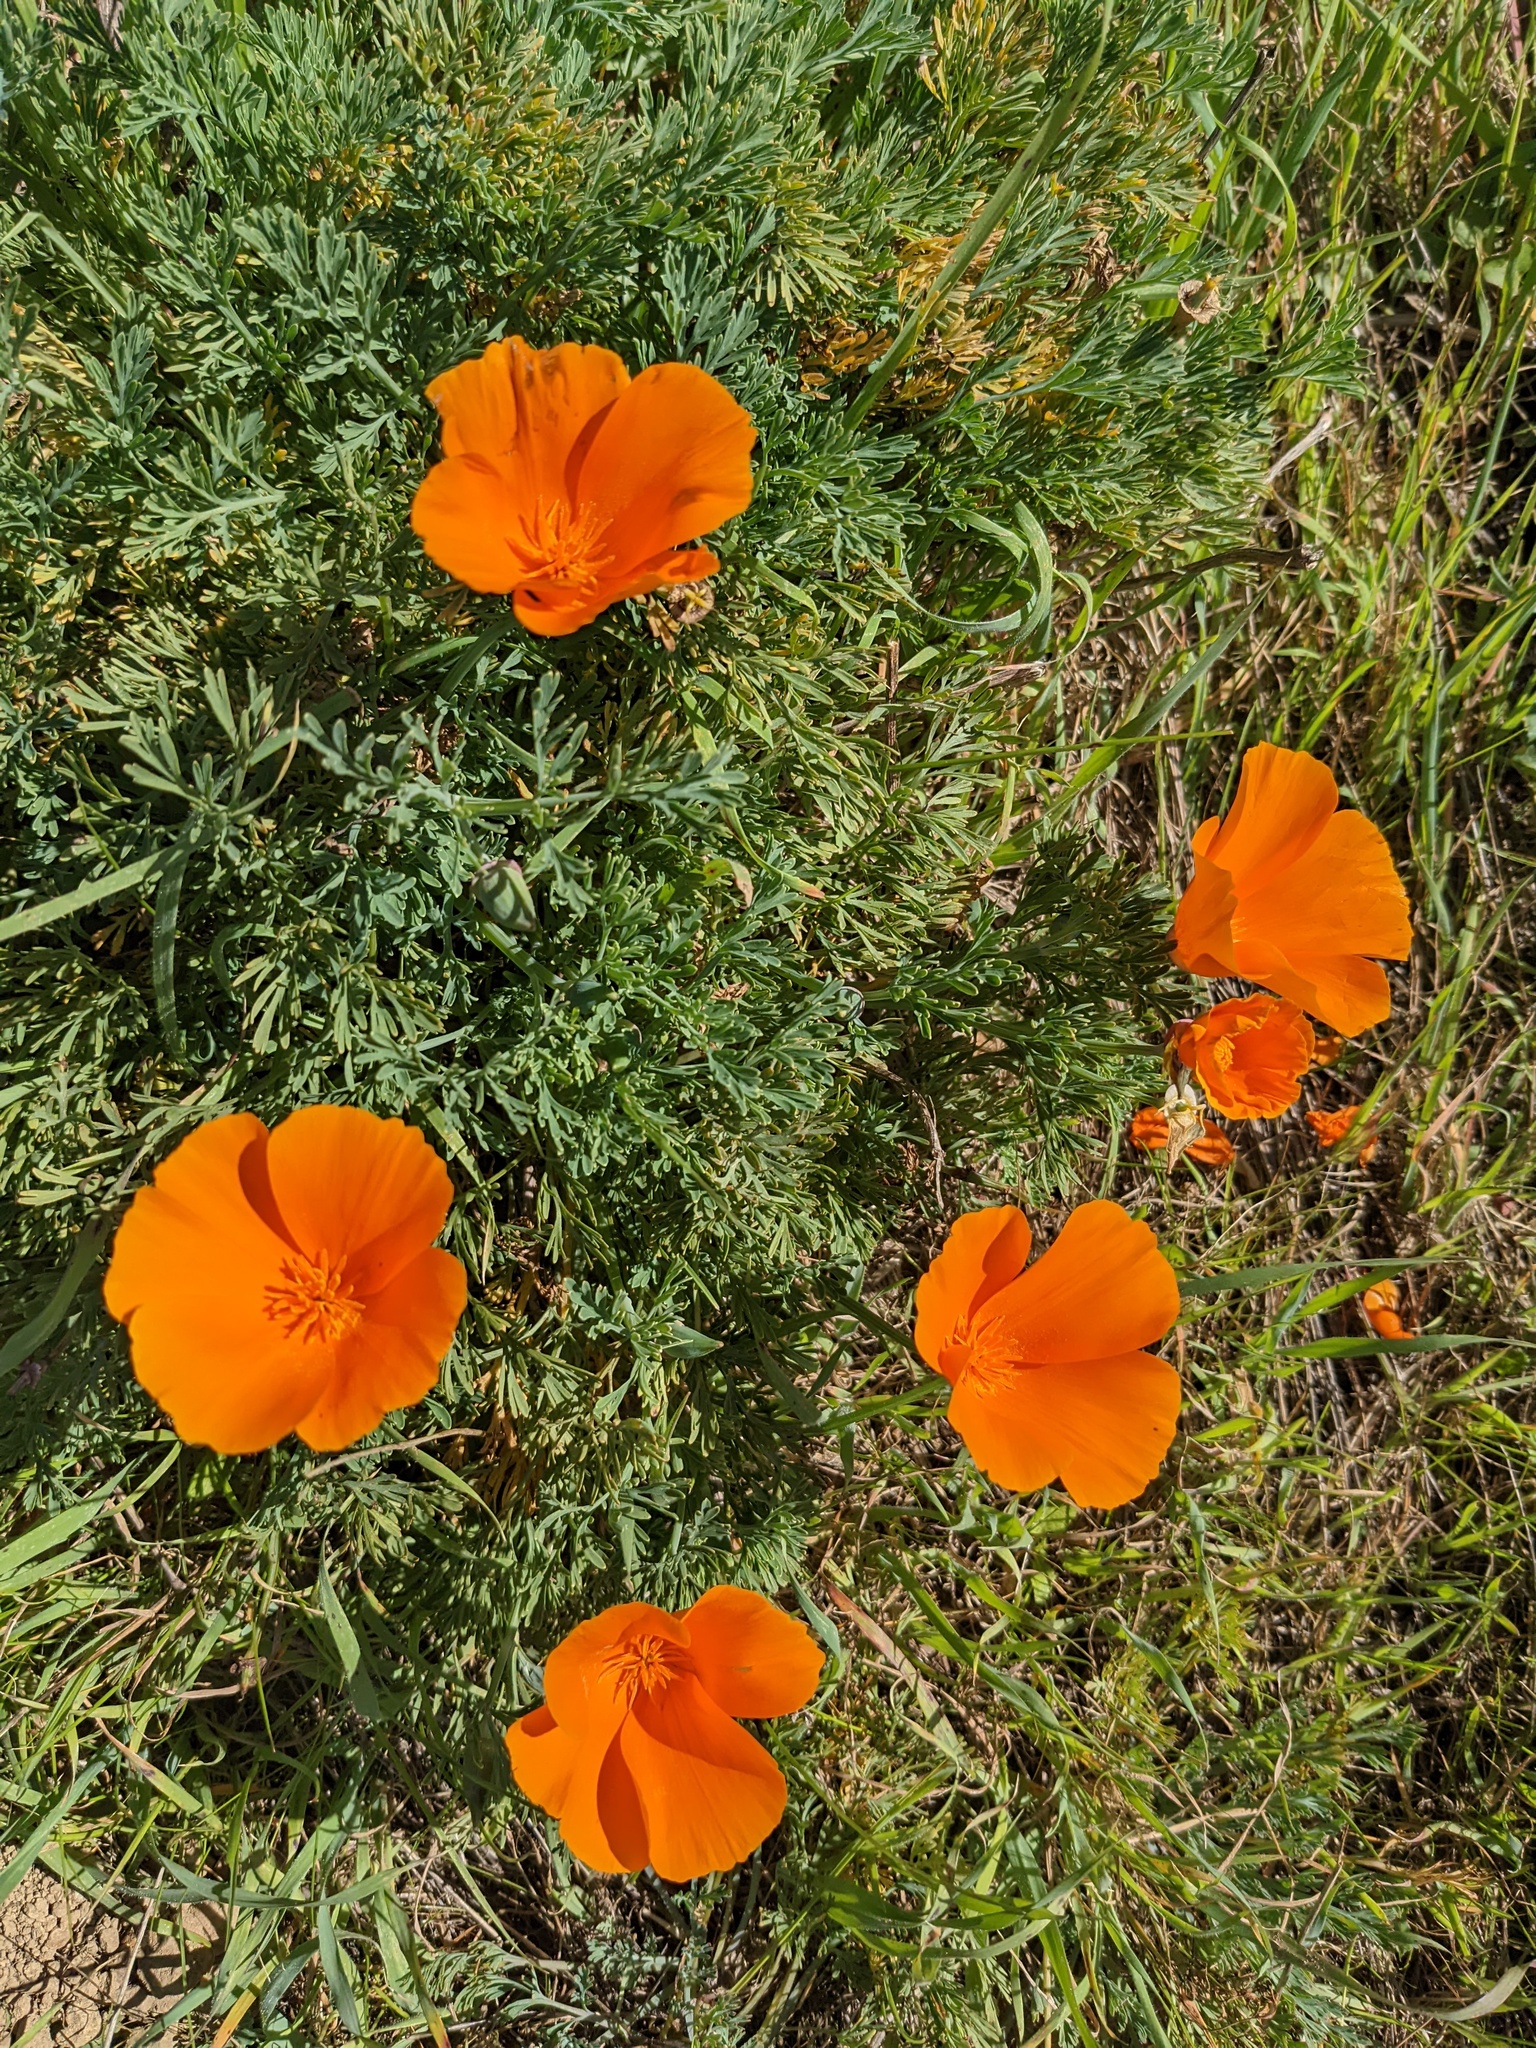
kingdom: Plantae
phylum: Tracheophyta
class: Magnoliopsida
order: Ranunculales
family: Papaveraceae
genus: Eschscholzia
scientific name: Eschscholzia californica
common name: California poppy
